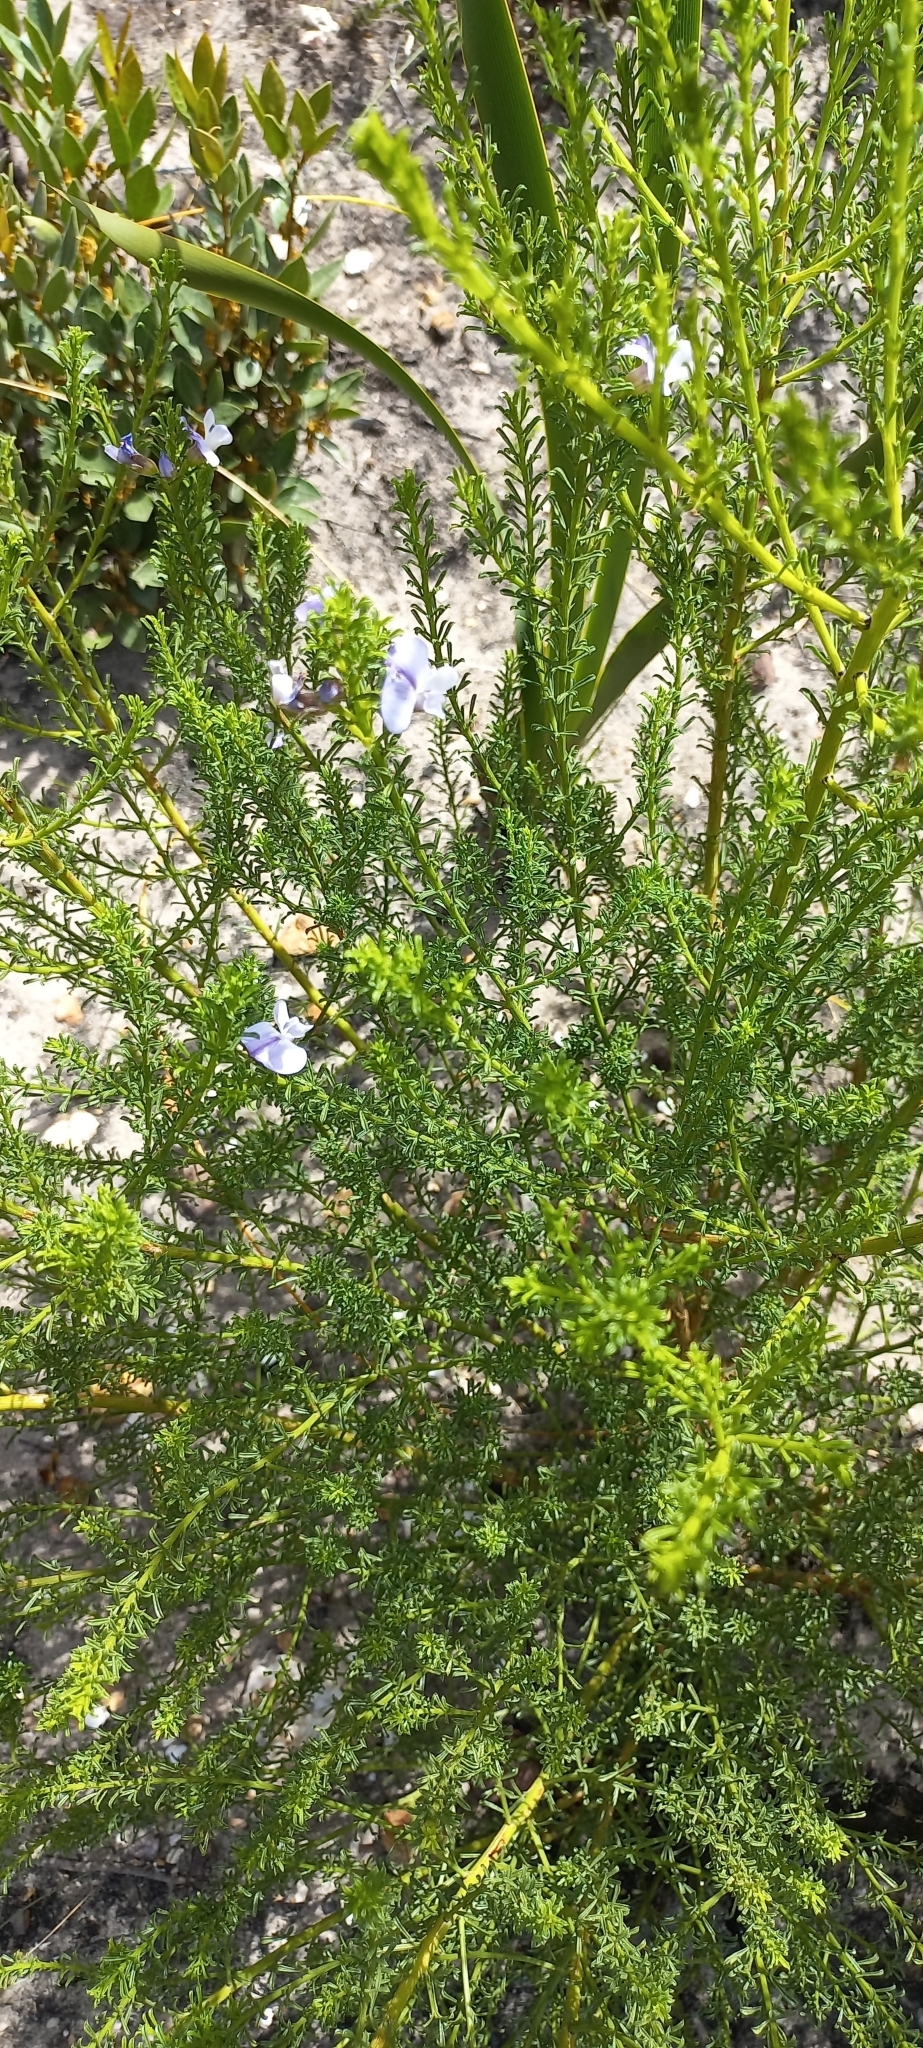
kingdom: Plantae
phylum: Tracheophyta
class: Magnoliopsida
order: Fabales
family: Fabaceae
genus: Psoralea
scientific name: Psoralea aculeata
